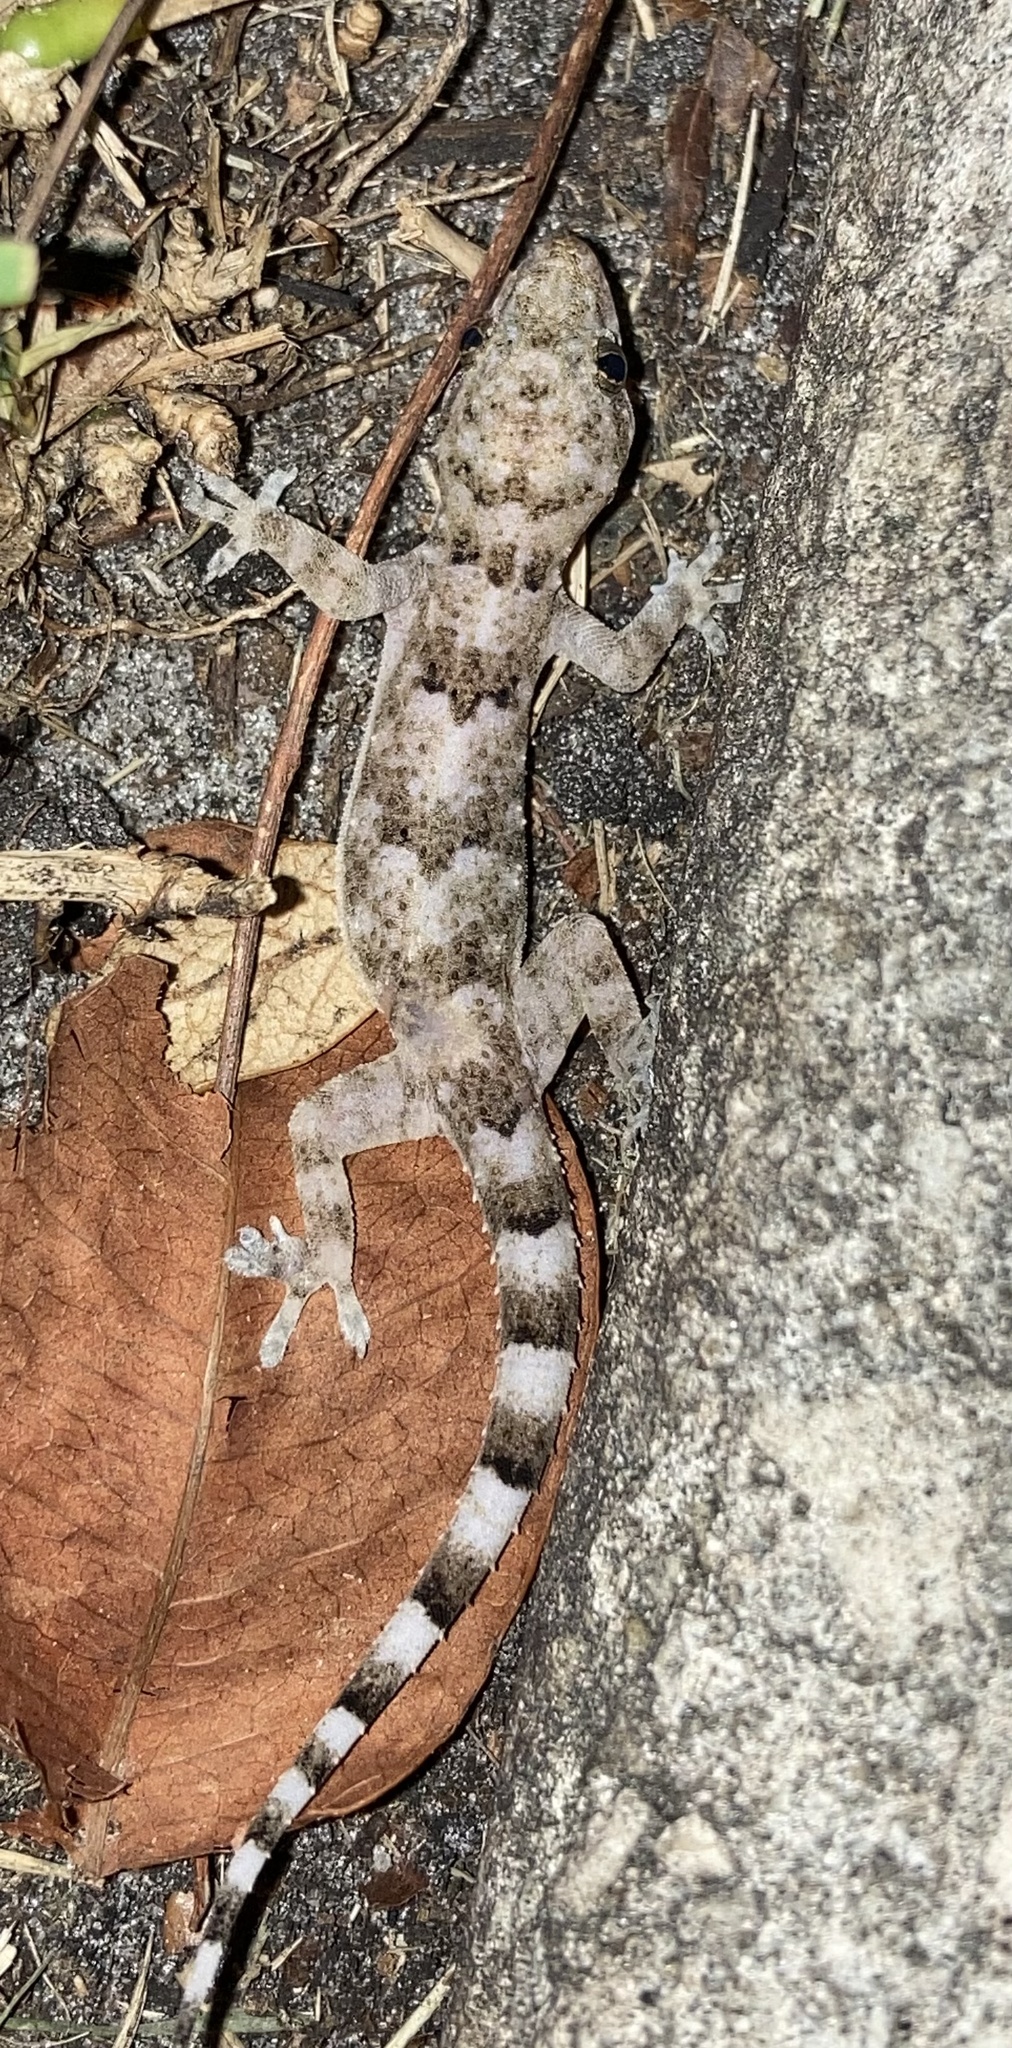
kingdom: Animalia
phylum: Chordata
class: Squamata
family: Gekkonidae
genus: Hemidactylus
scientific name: Hemidactylus mabouia
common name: House gecko
